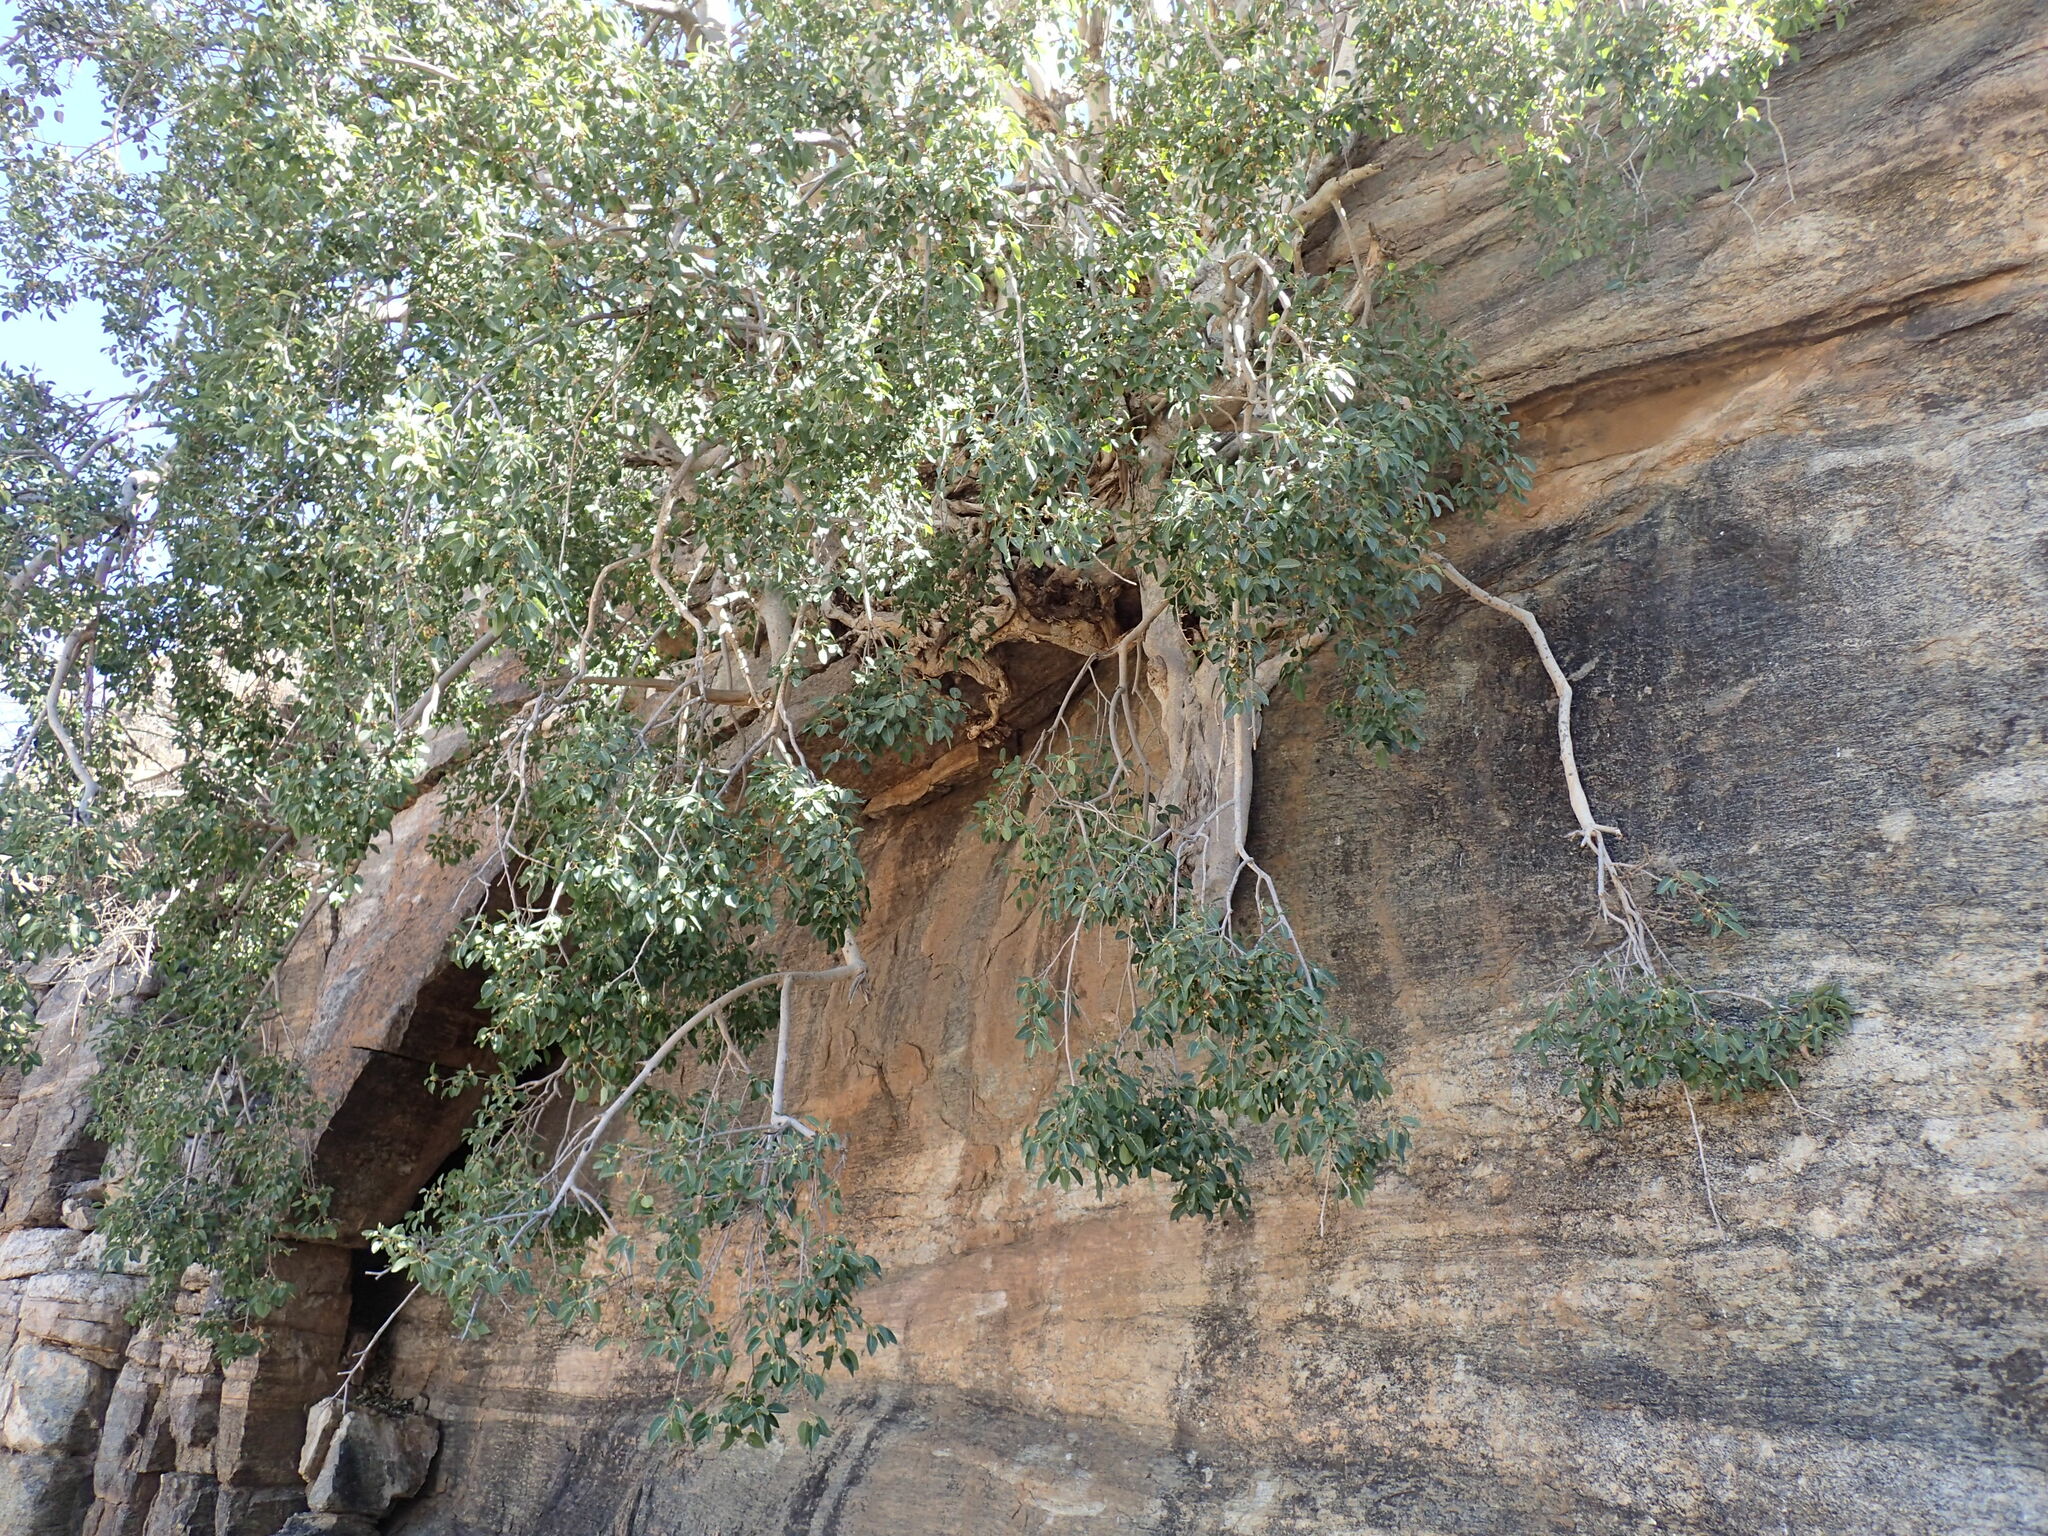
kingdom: Plantae
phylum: Tracheophyta
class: Magnoliopsida
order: Rosales
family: Moraceae
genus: Ficus
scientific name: Ficus cordata
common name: Namaqua rock fig
